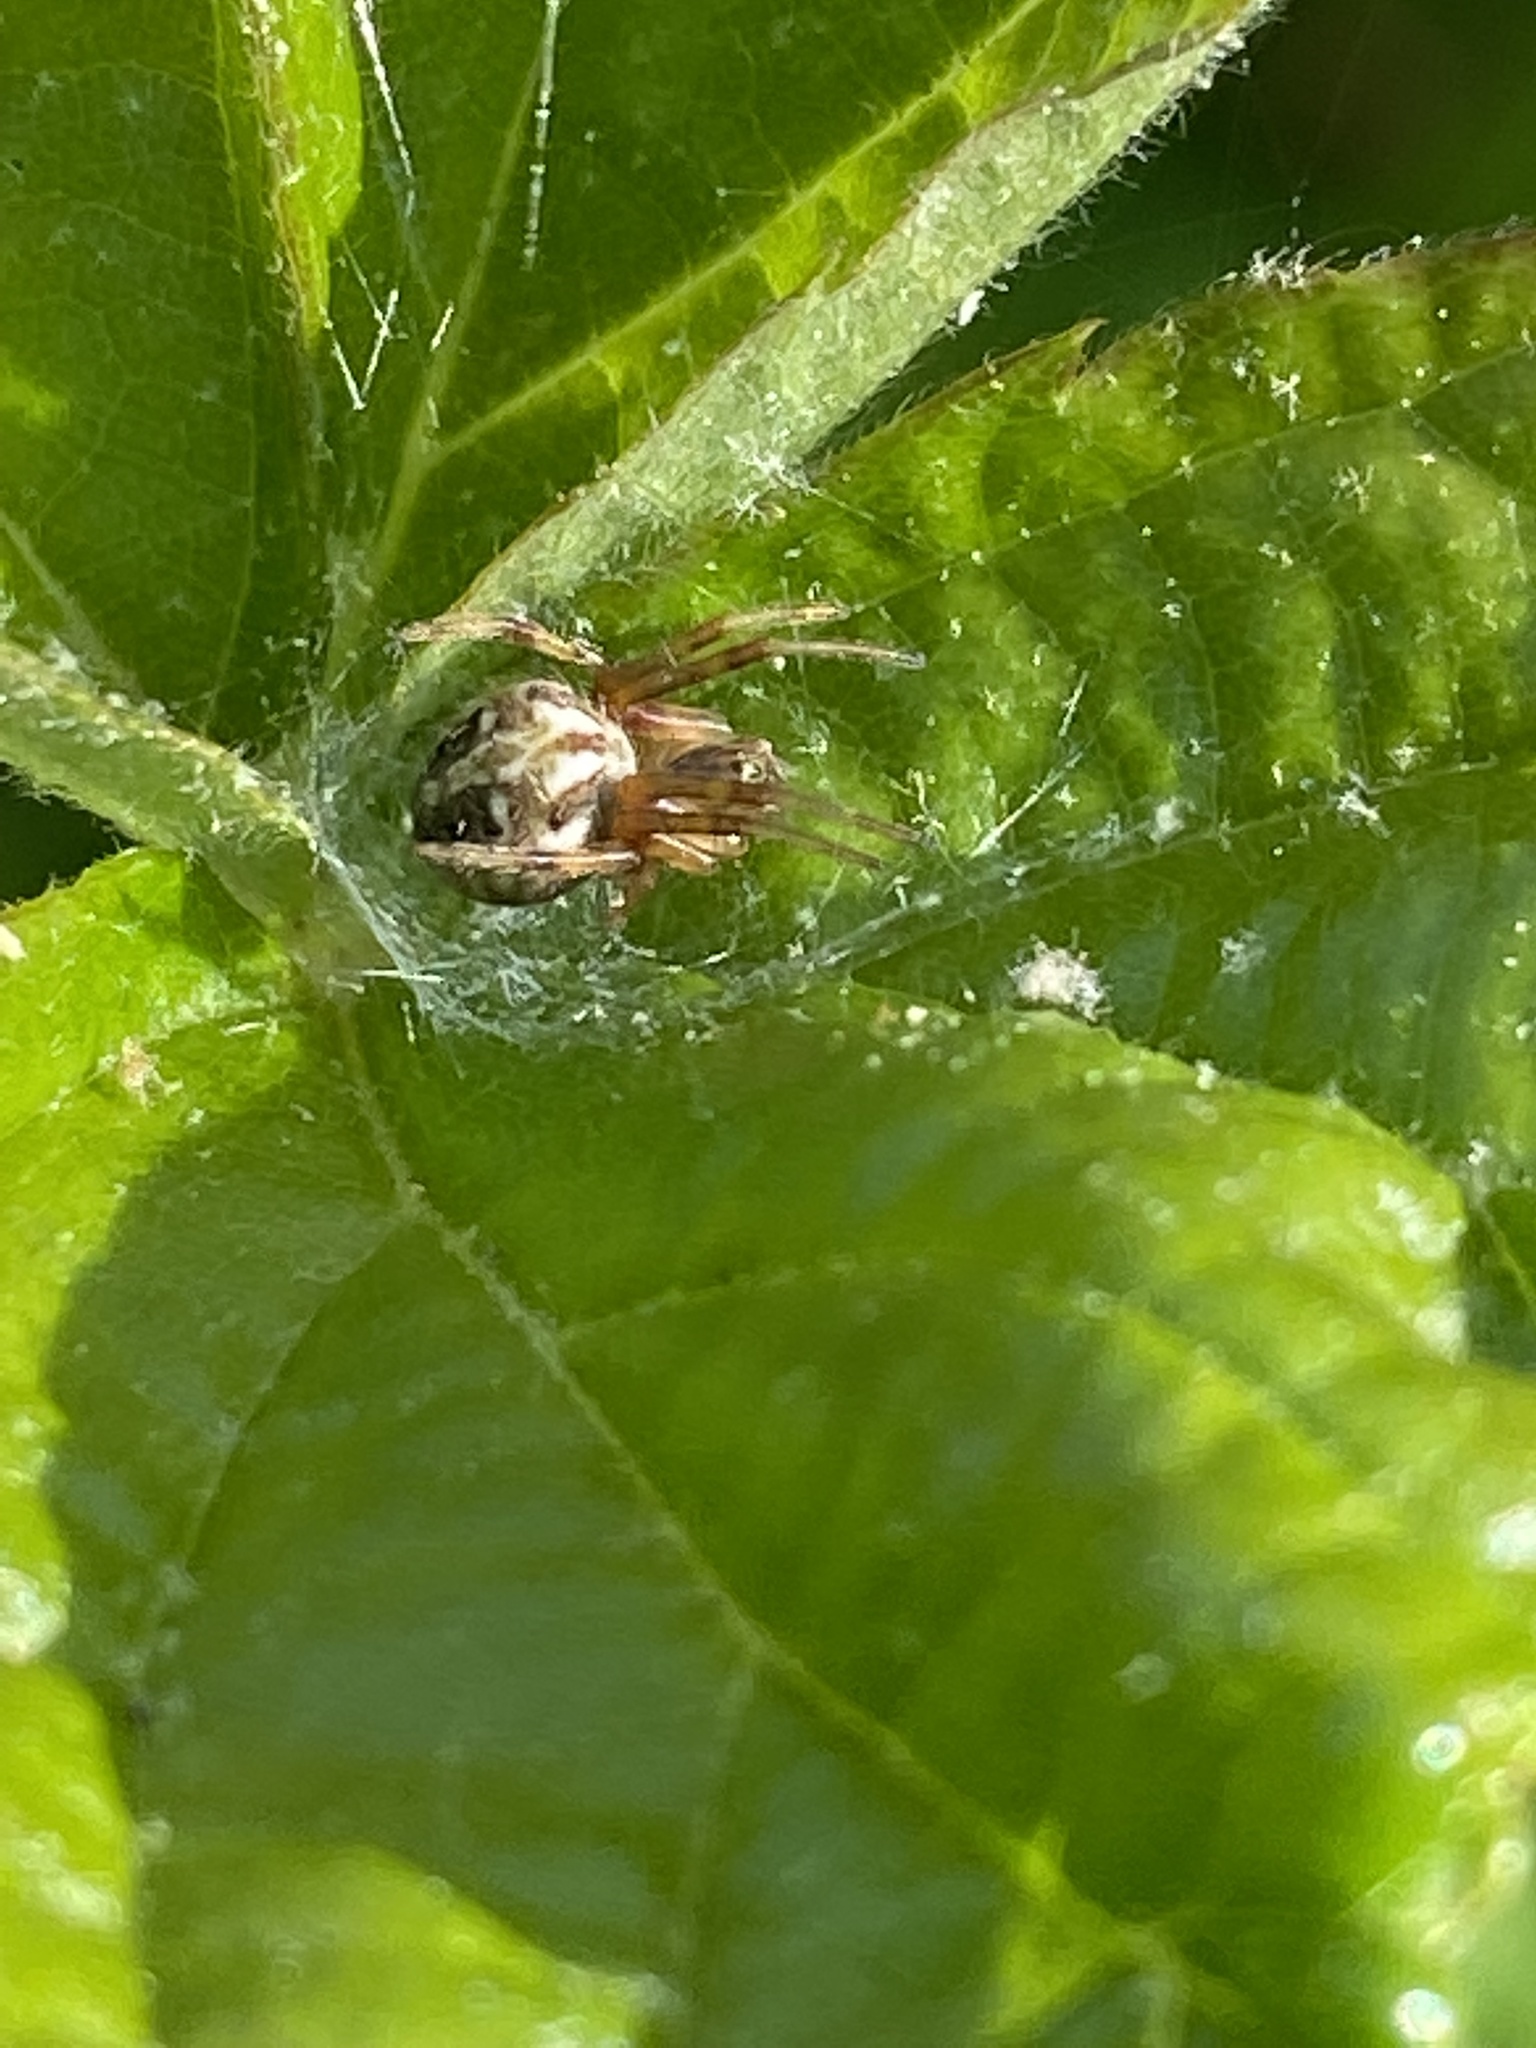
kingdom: Animalia
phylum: Arthropoda
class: Arachnida
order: Araneae
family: Araneidae
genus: Neoscona
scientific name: Neoscona arabesca
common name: Orb weavers
